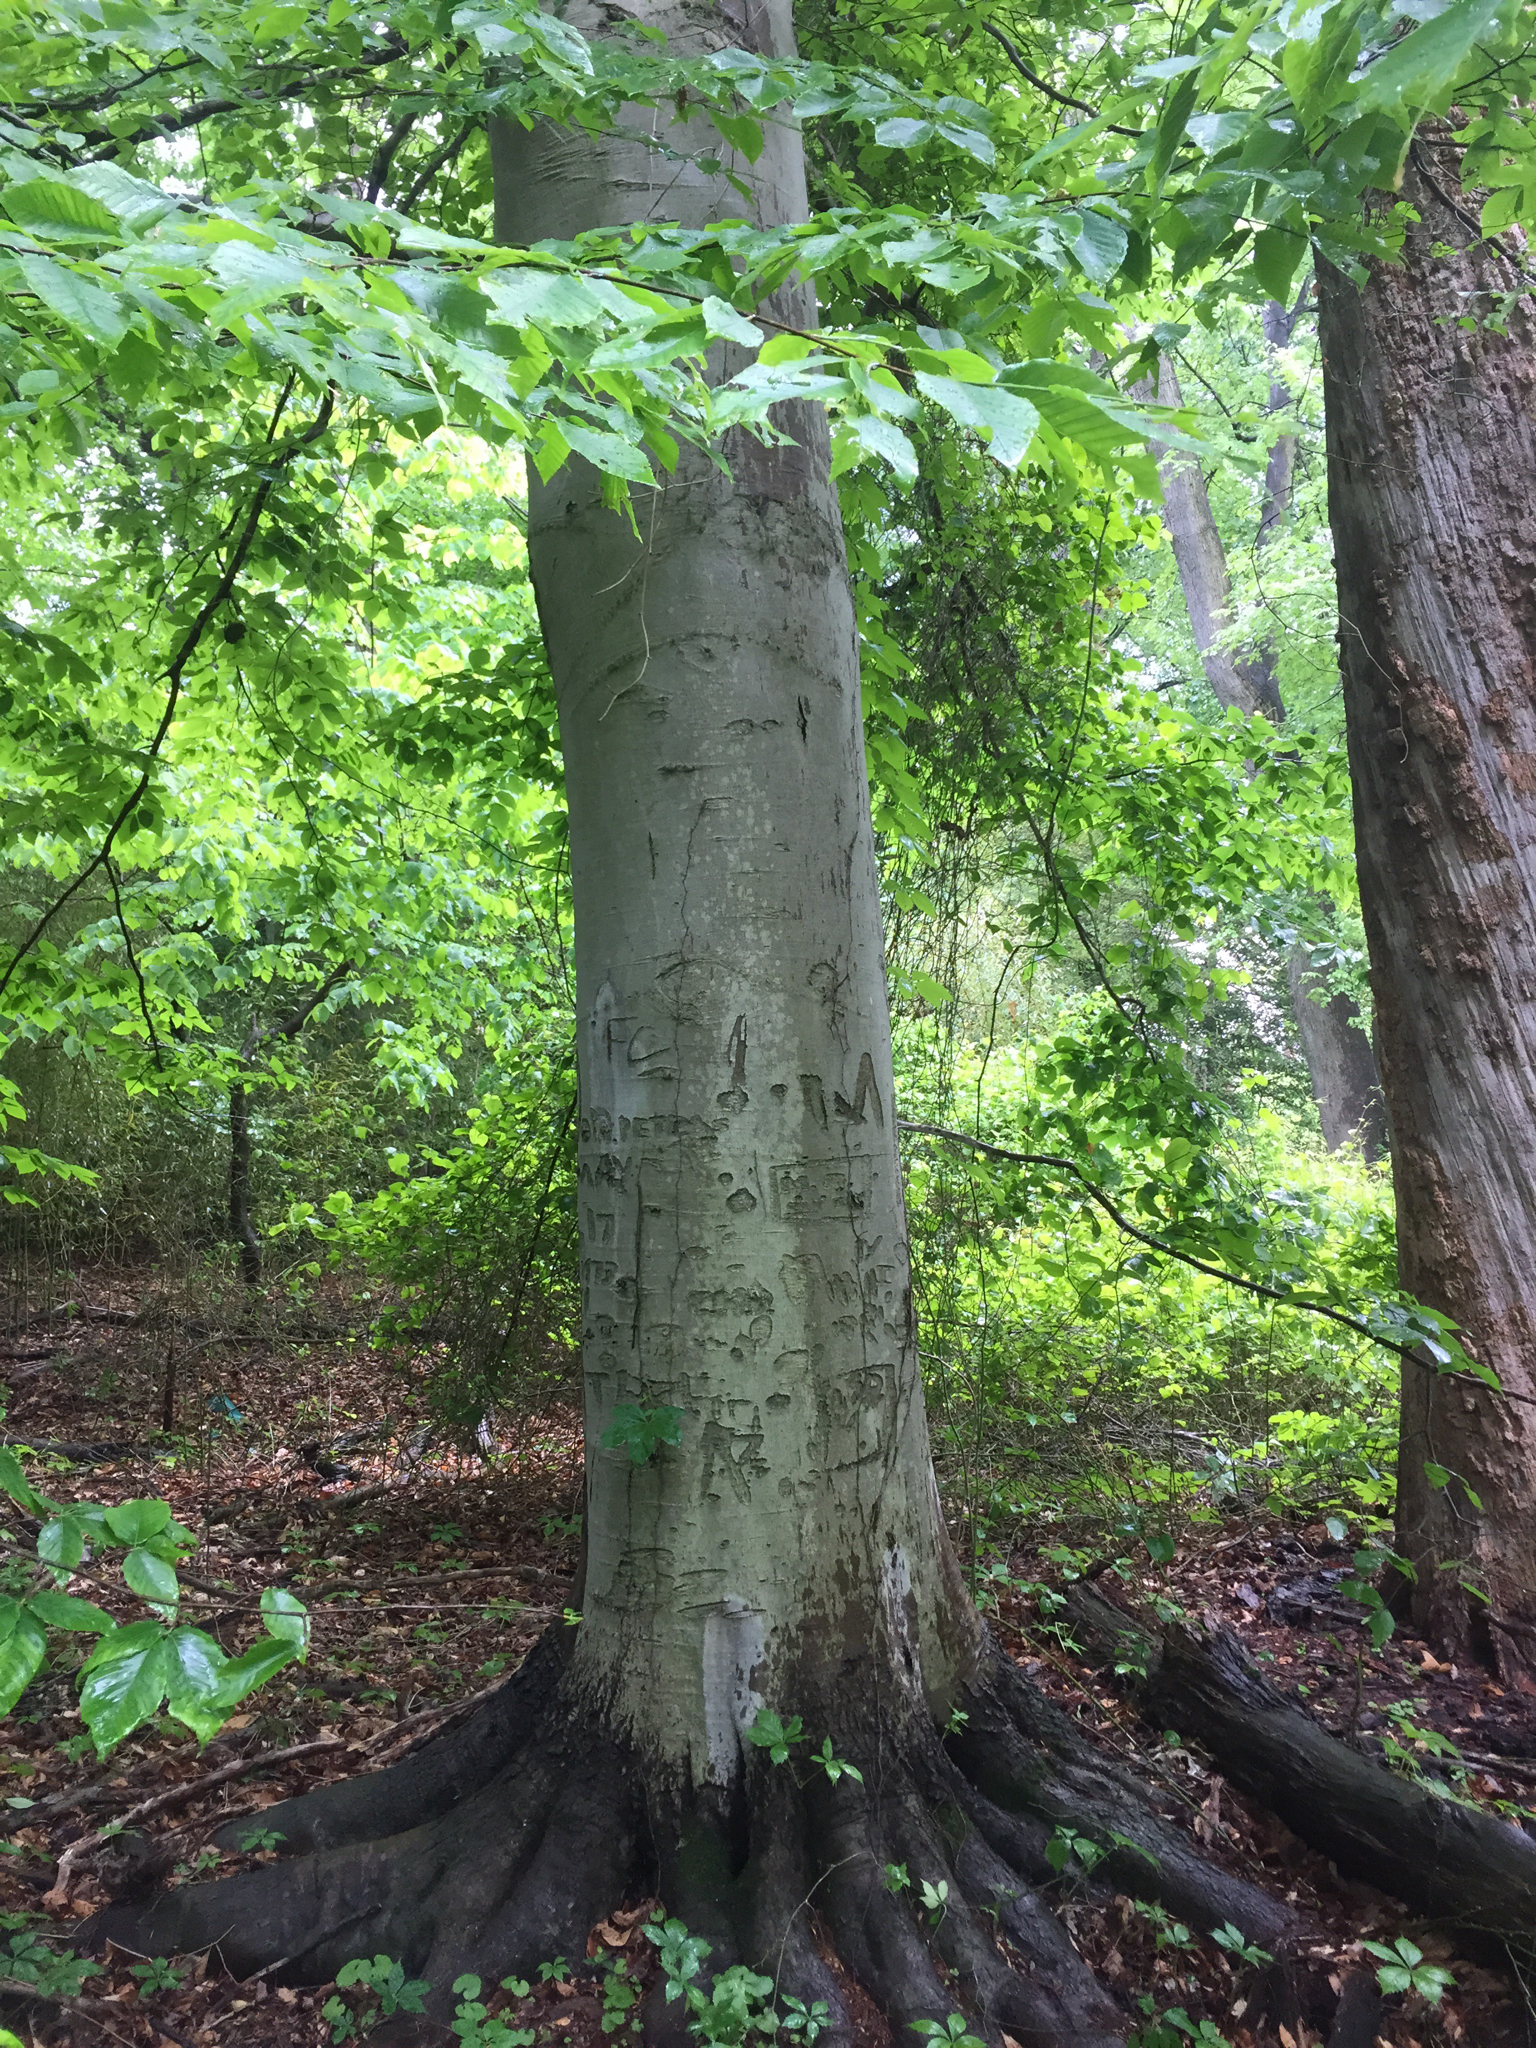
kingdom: Plantae
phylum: Tracheophyta
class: Magnoliopsida
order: Fagales
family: Fagaceae
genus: Fagus
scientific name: Fagus grandifolia
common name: American beech
